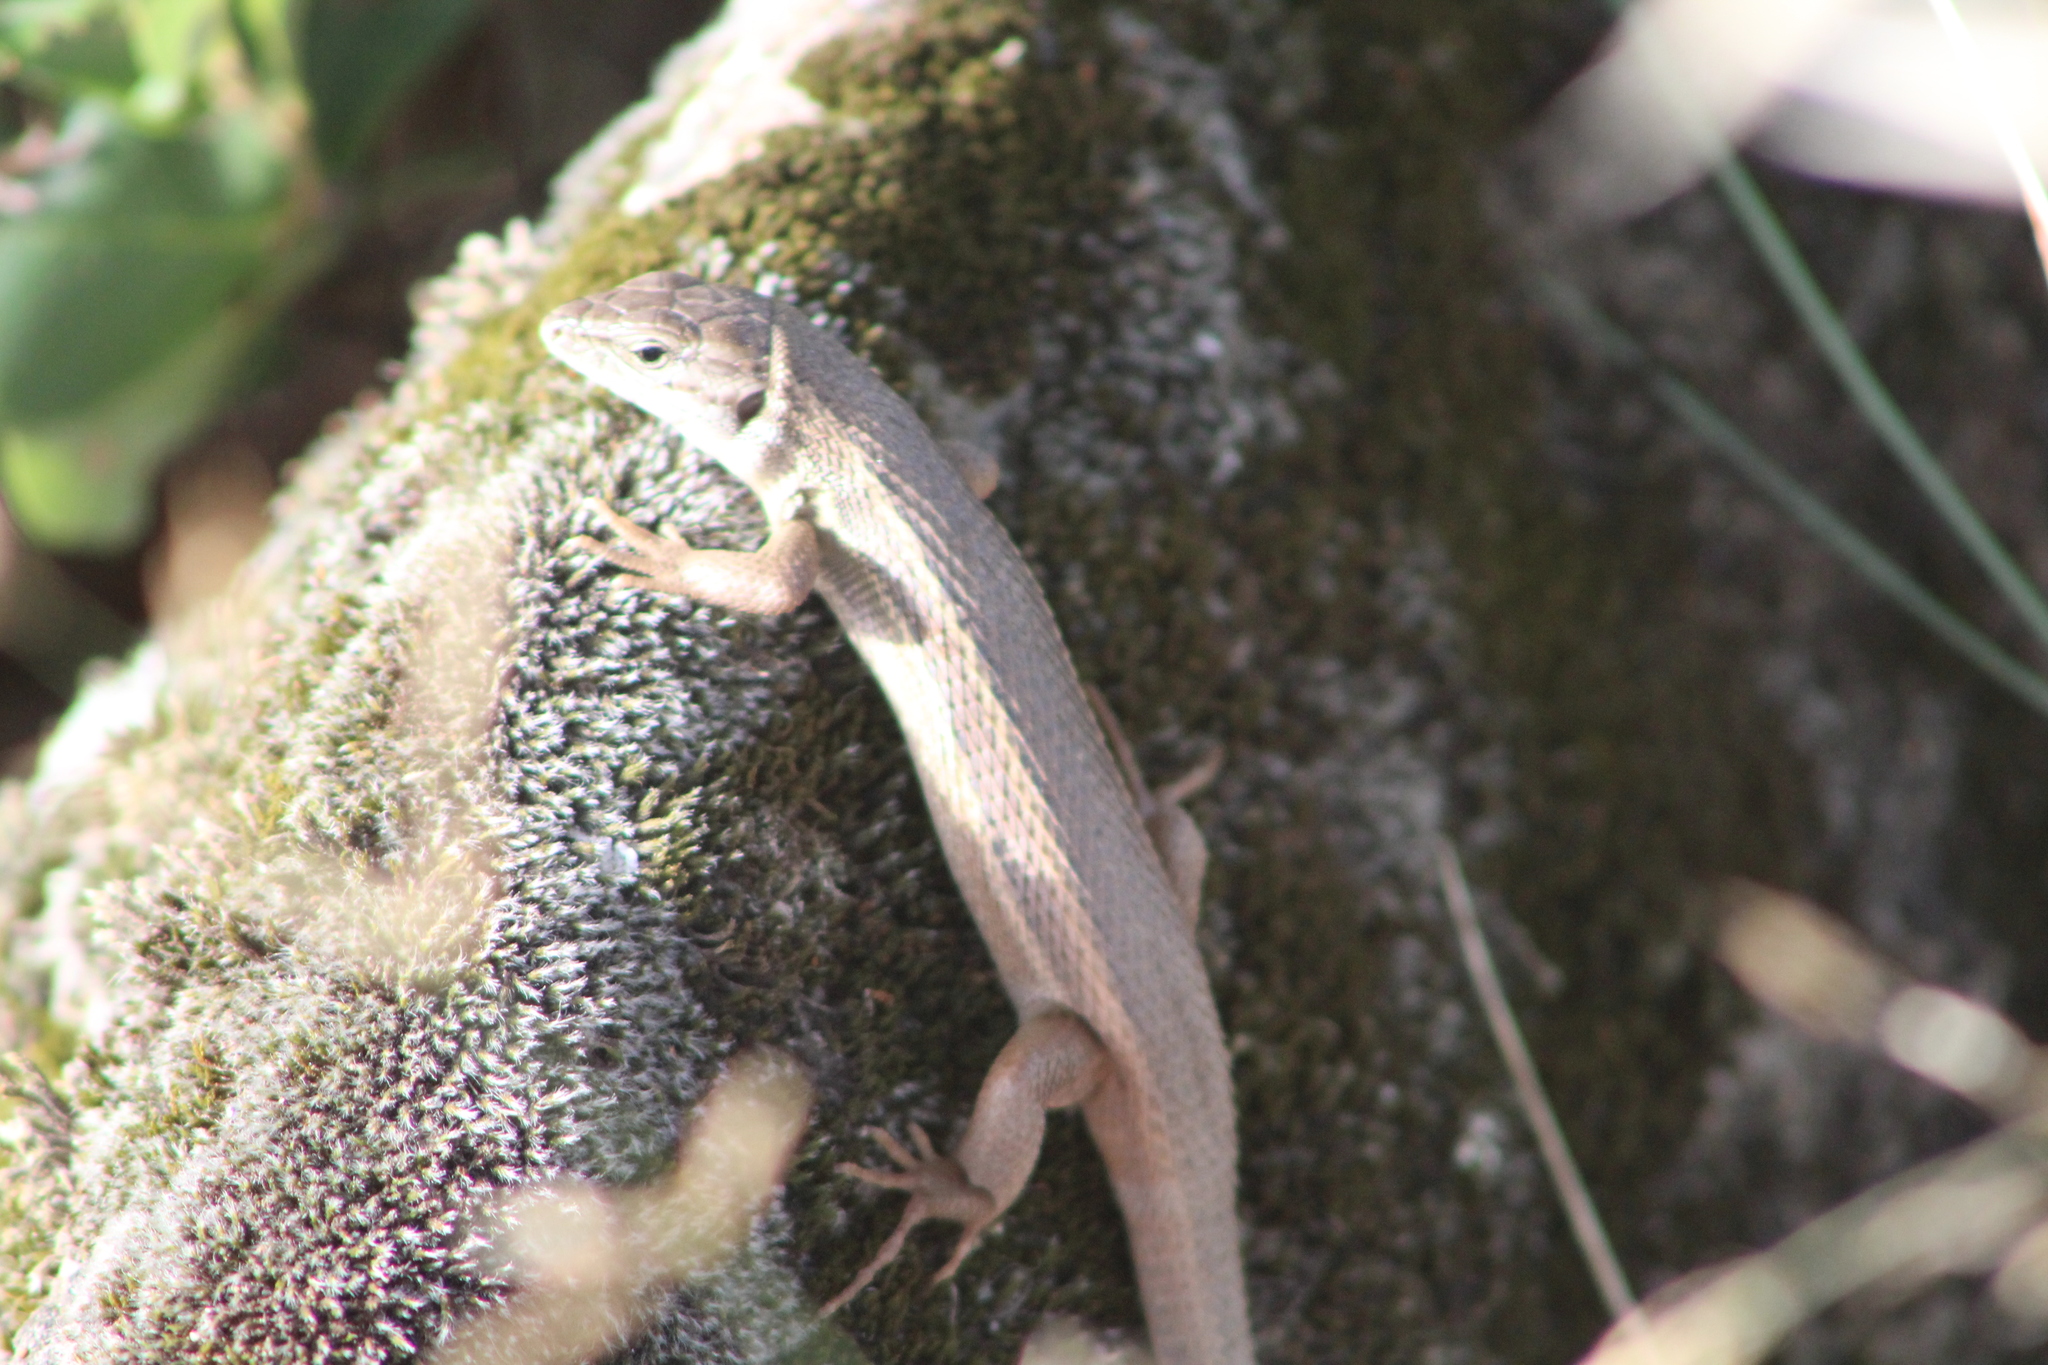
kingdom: Animalia
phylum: Chordata
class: Squamata
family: Lacertidae
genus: Psammodromus
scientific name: Psammodromus algirus
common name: Algerian psammodromus
